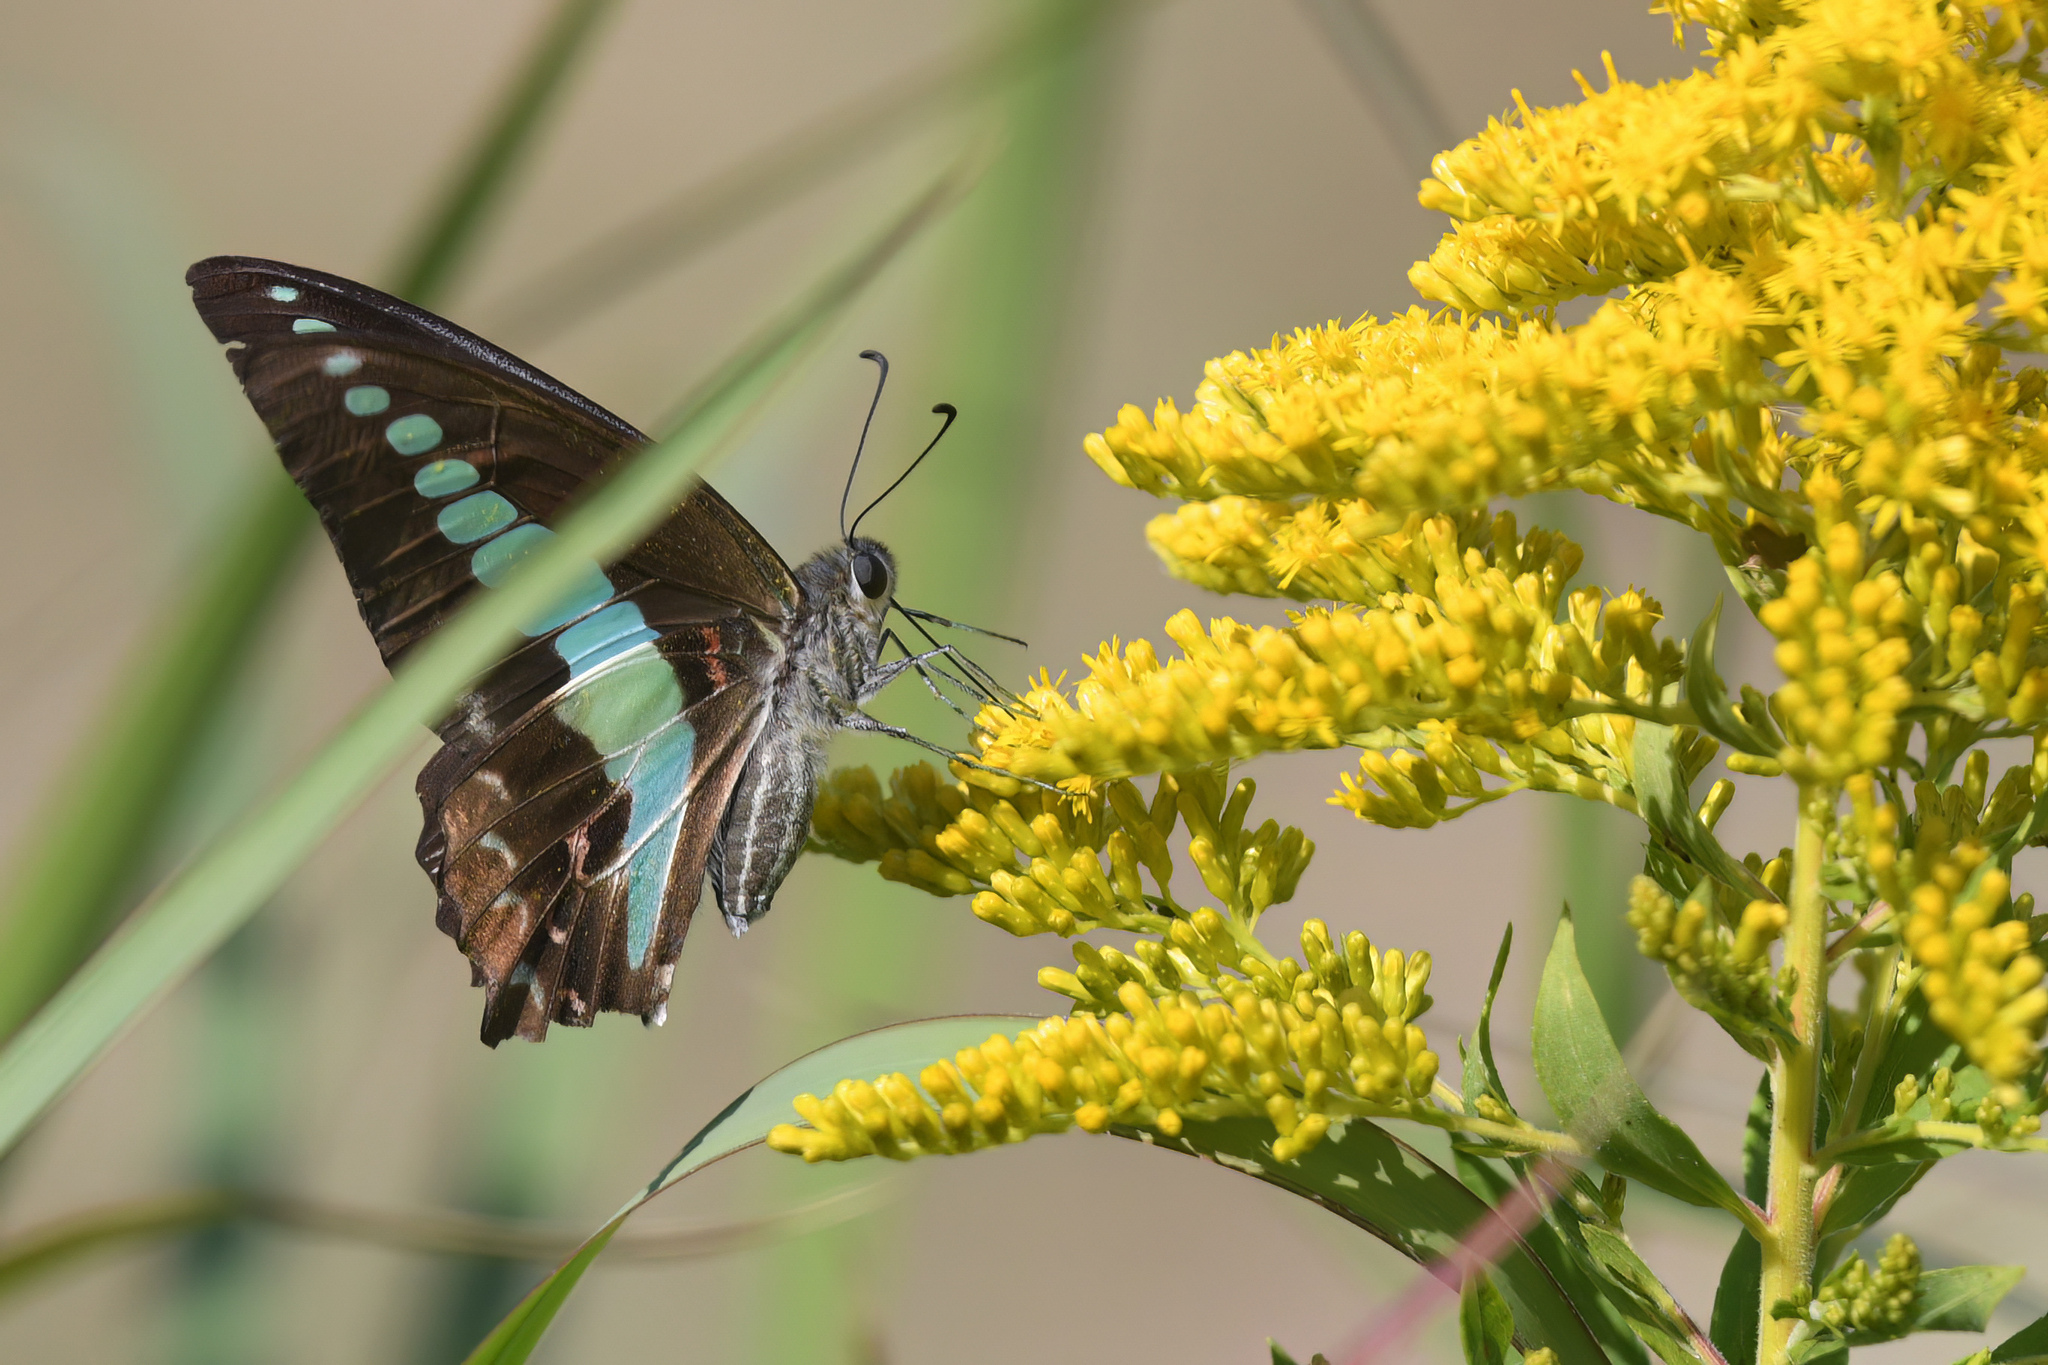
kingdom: Fungi
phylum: Ascomycota
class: Sordariomycetes
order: Microascales
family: Microascaceae
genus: Graphium
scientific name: Graphium sarpedon
